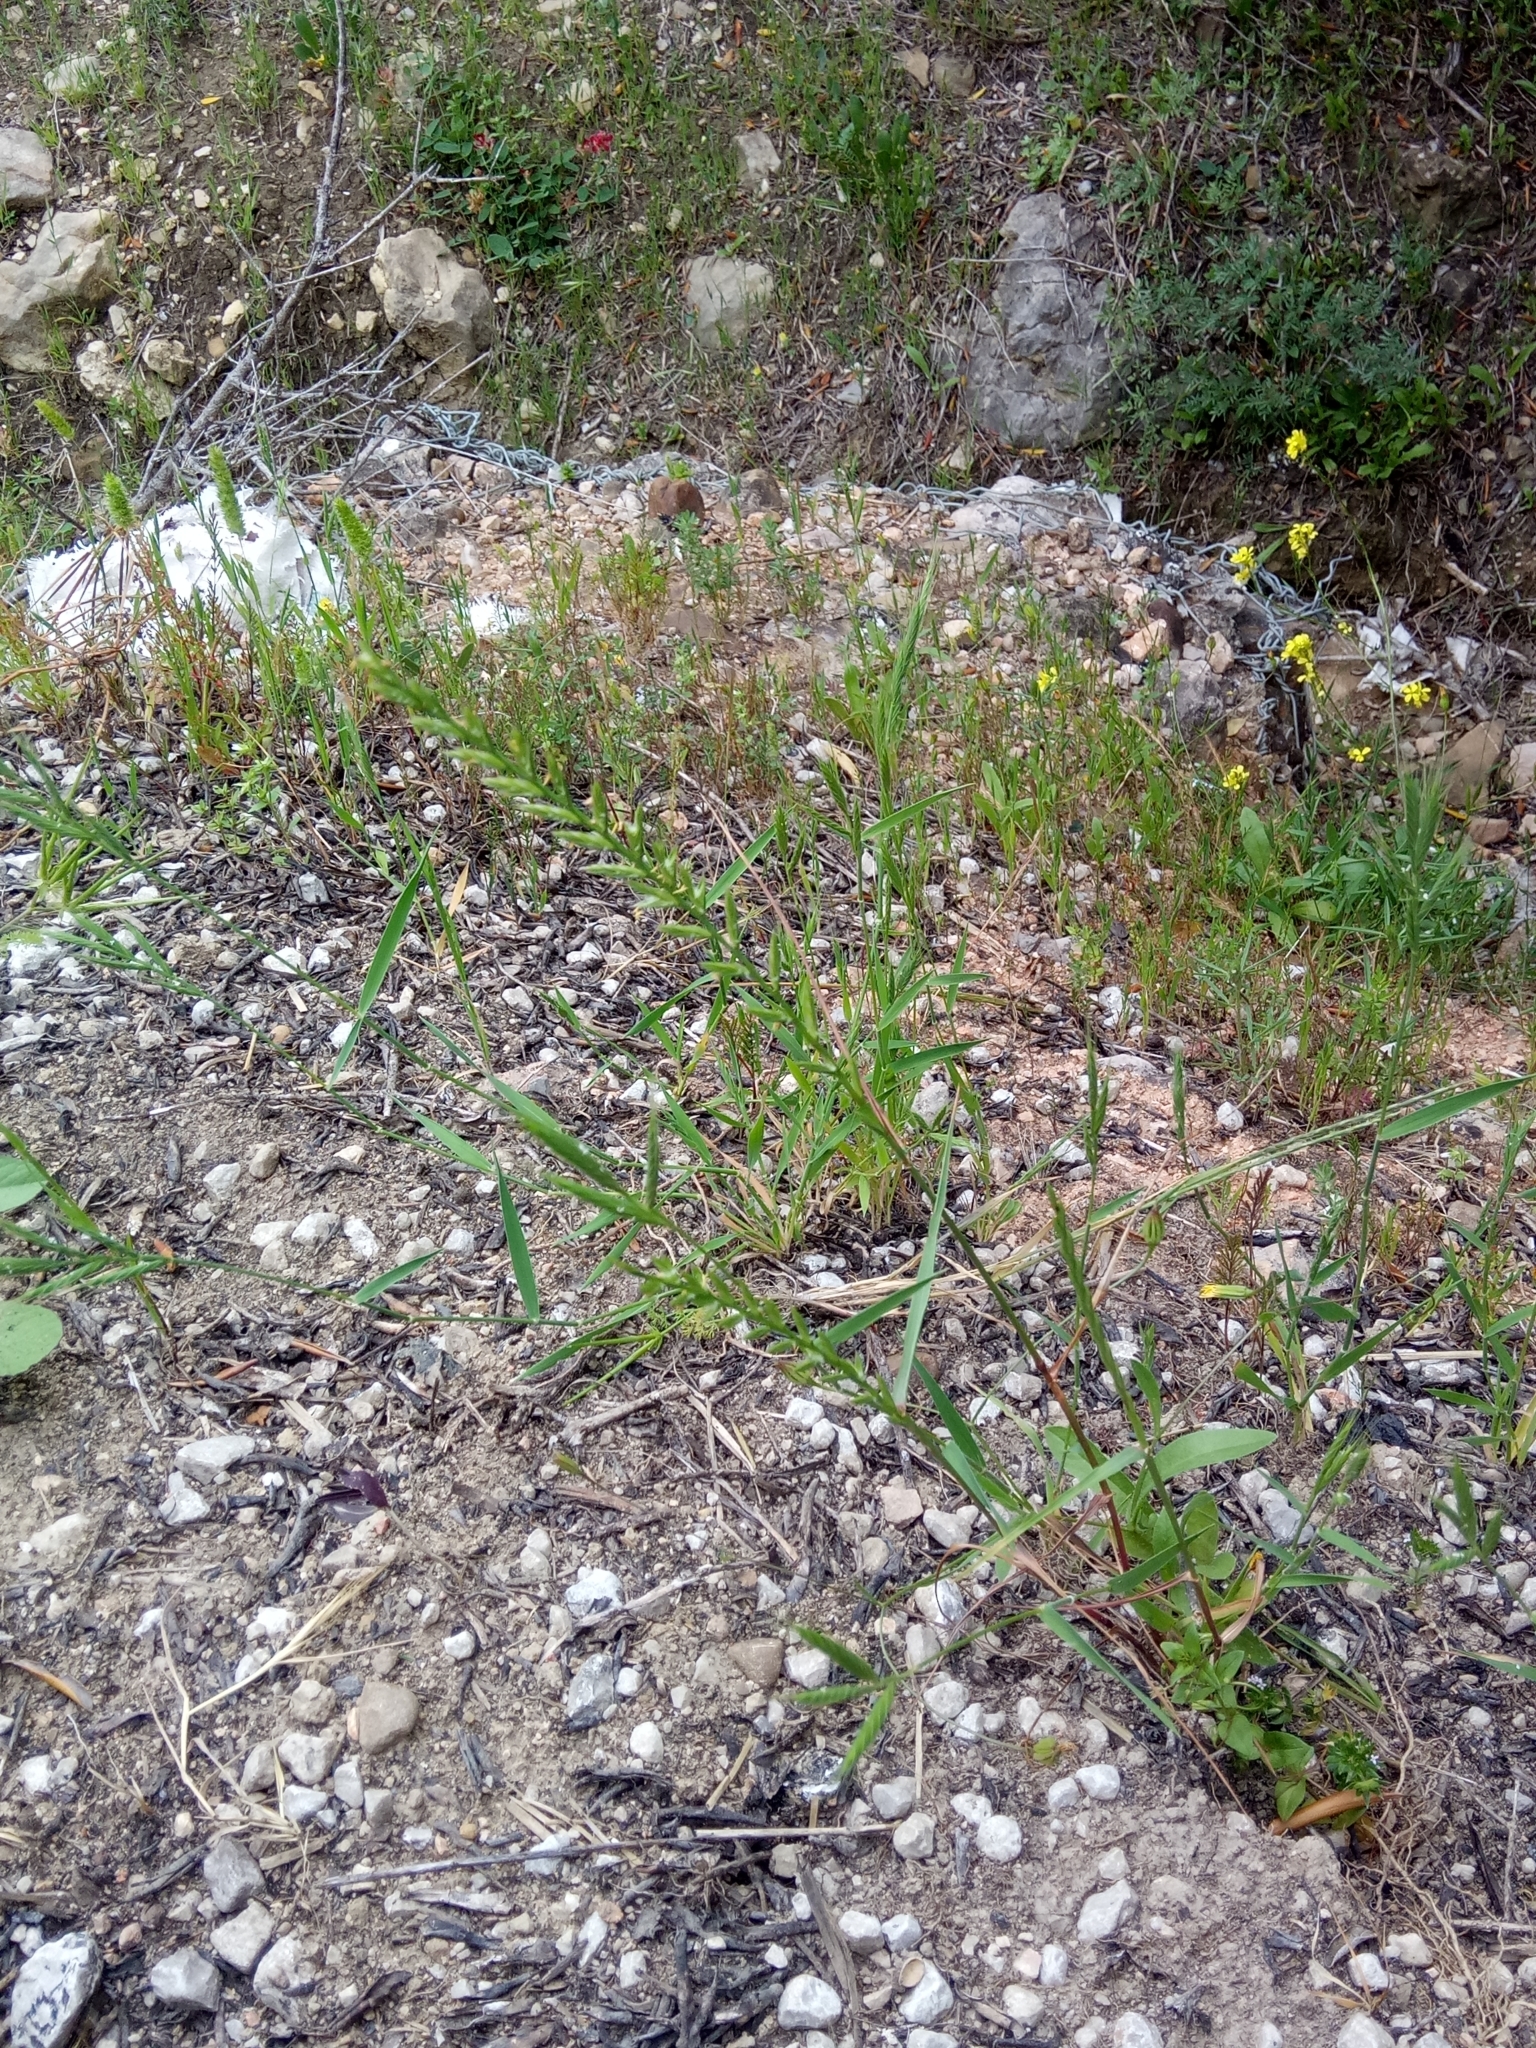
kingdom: Plantae
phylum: Tracheophyta
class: Liliopsida
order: Poales
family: Poaceae
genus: Lolium
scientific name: Lolium rigidum
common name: Wimmera ryegrass
